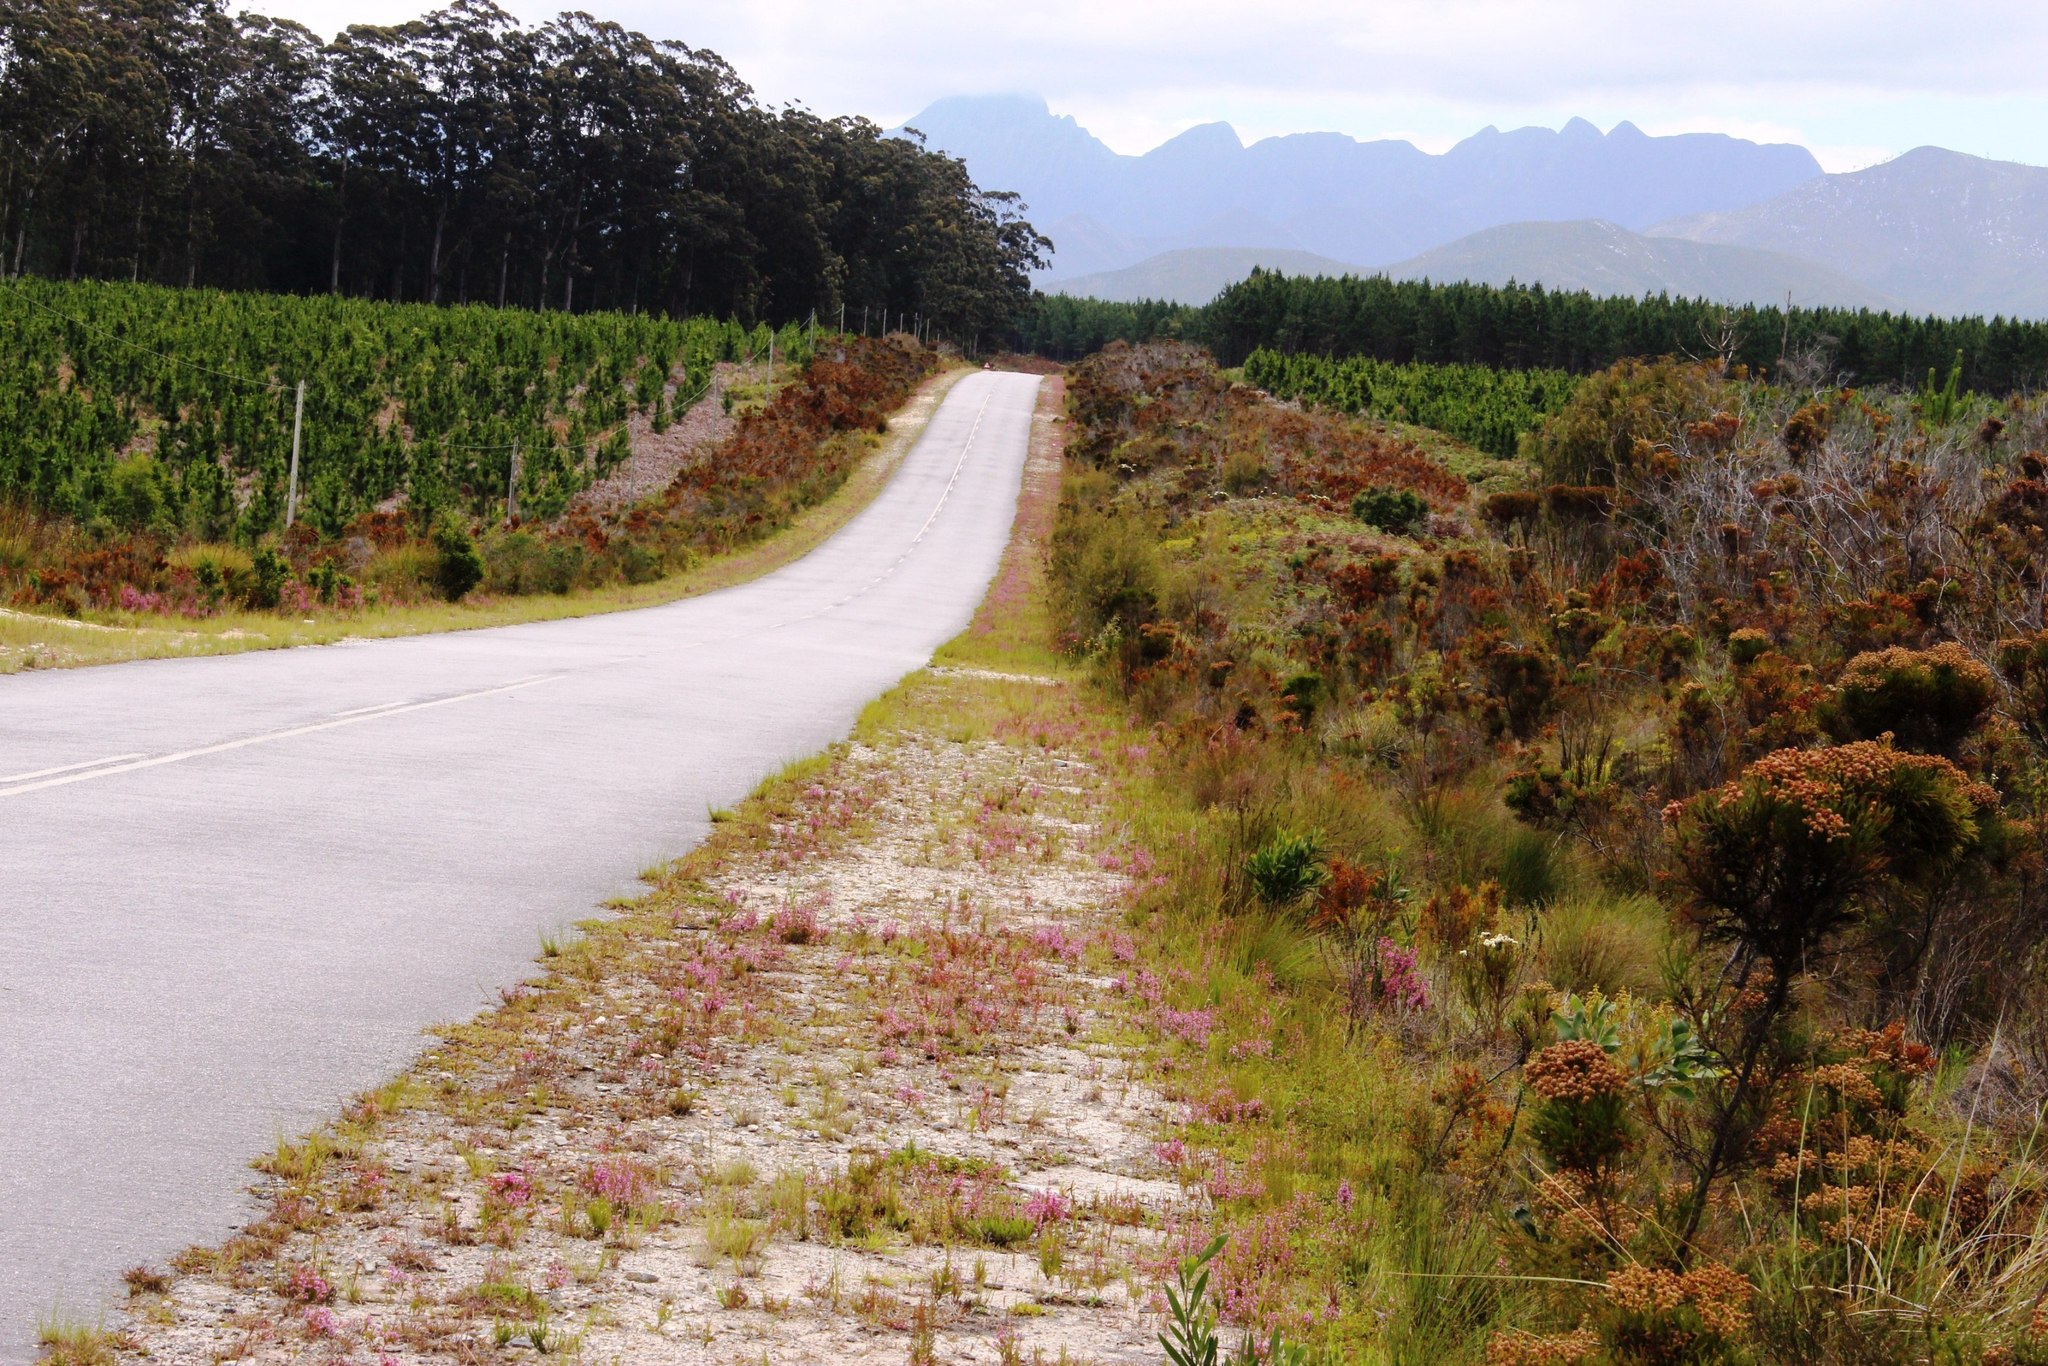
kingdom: Plantae
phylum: Tracheophyta
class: Magnoliopsida
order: Ericales
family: Ericaceae
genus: Erica
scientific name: Erica gracilis
